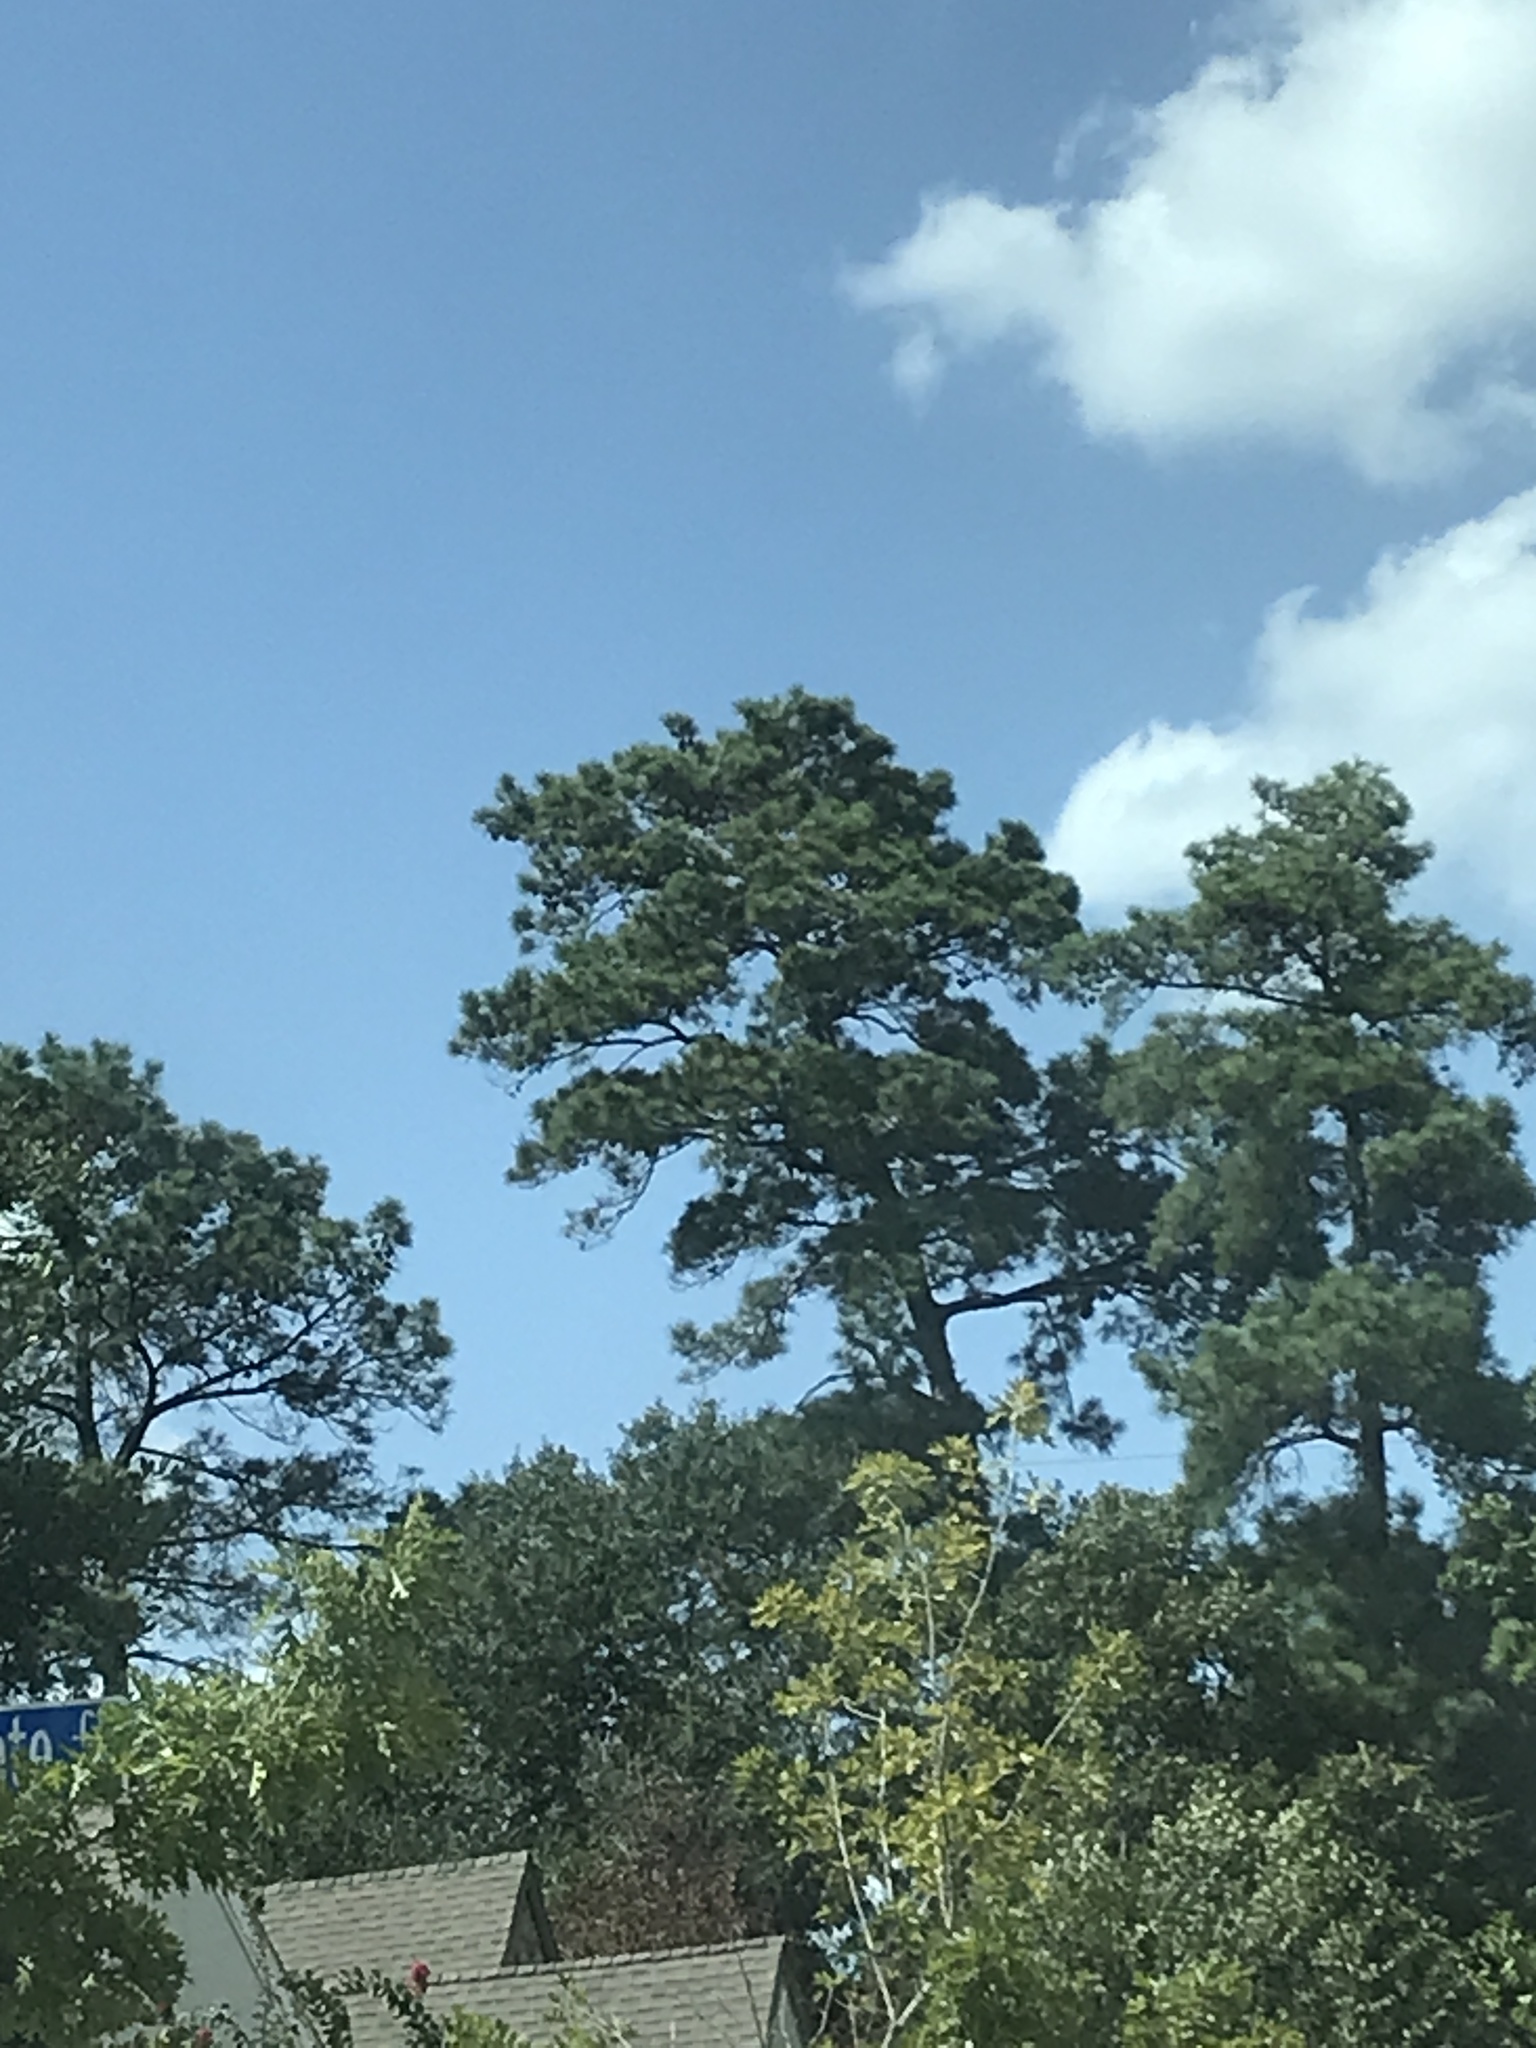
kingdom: Plantae
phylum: Tracheophyta
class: Pinopsida
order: Pinales
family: Pinaceae
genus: Pinus
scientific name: Pinus echinata
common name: Shortleaf pine
